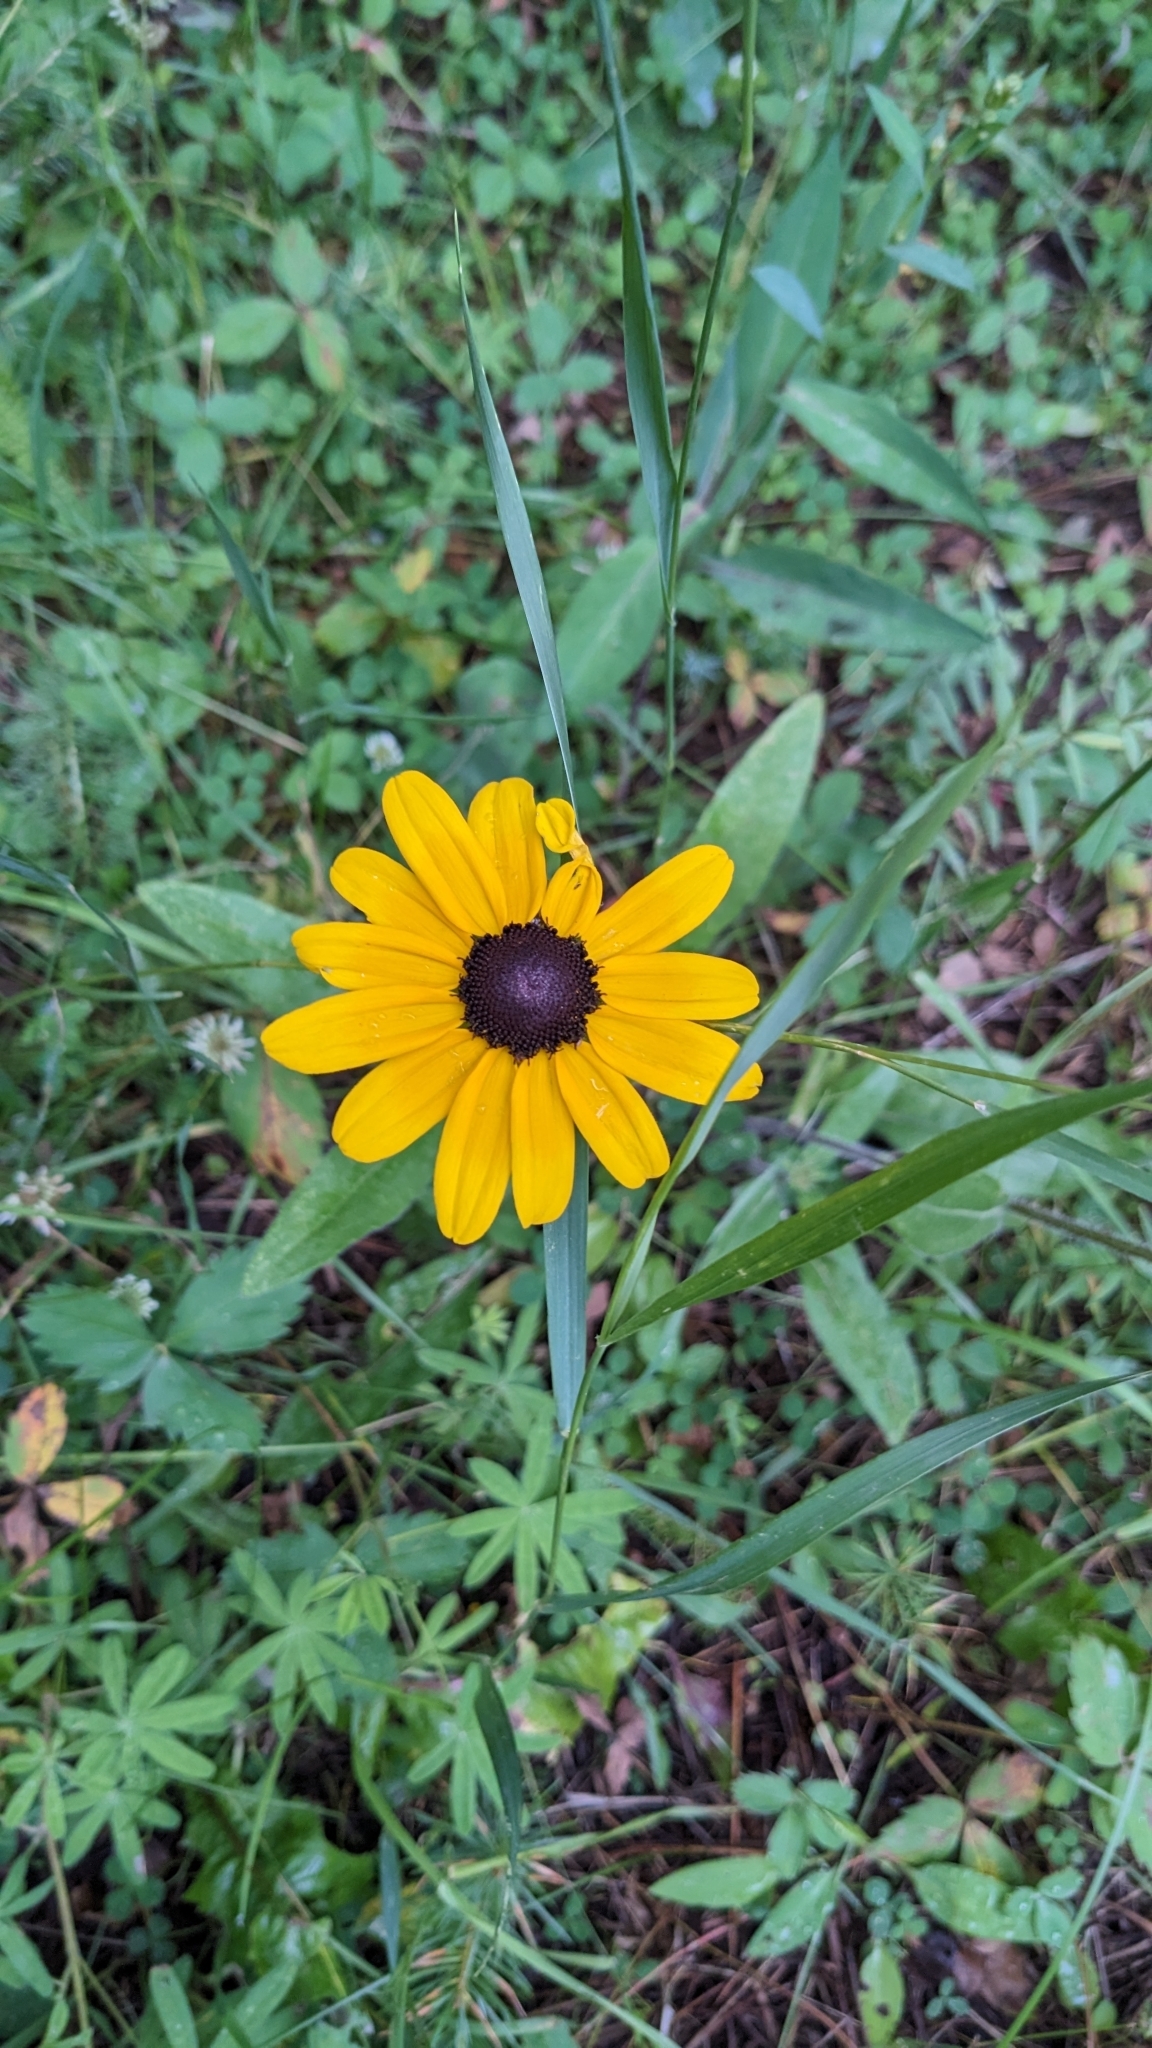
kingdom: Plantae
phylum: Tracheophyta
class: Magnoliopsida
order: Asterales
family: Asteraceae
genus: Rudbeckia
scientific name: Rudbeckia hirta
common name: Black-eyed-susan
